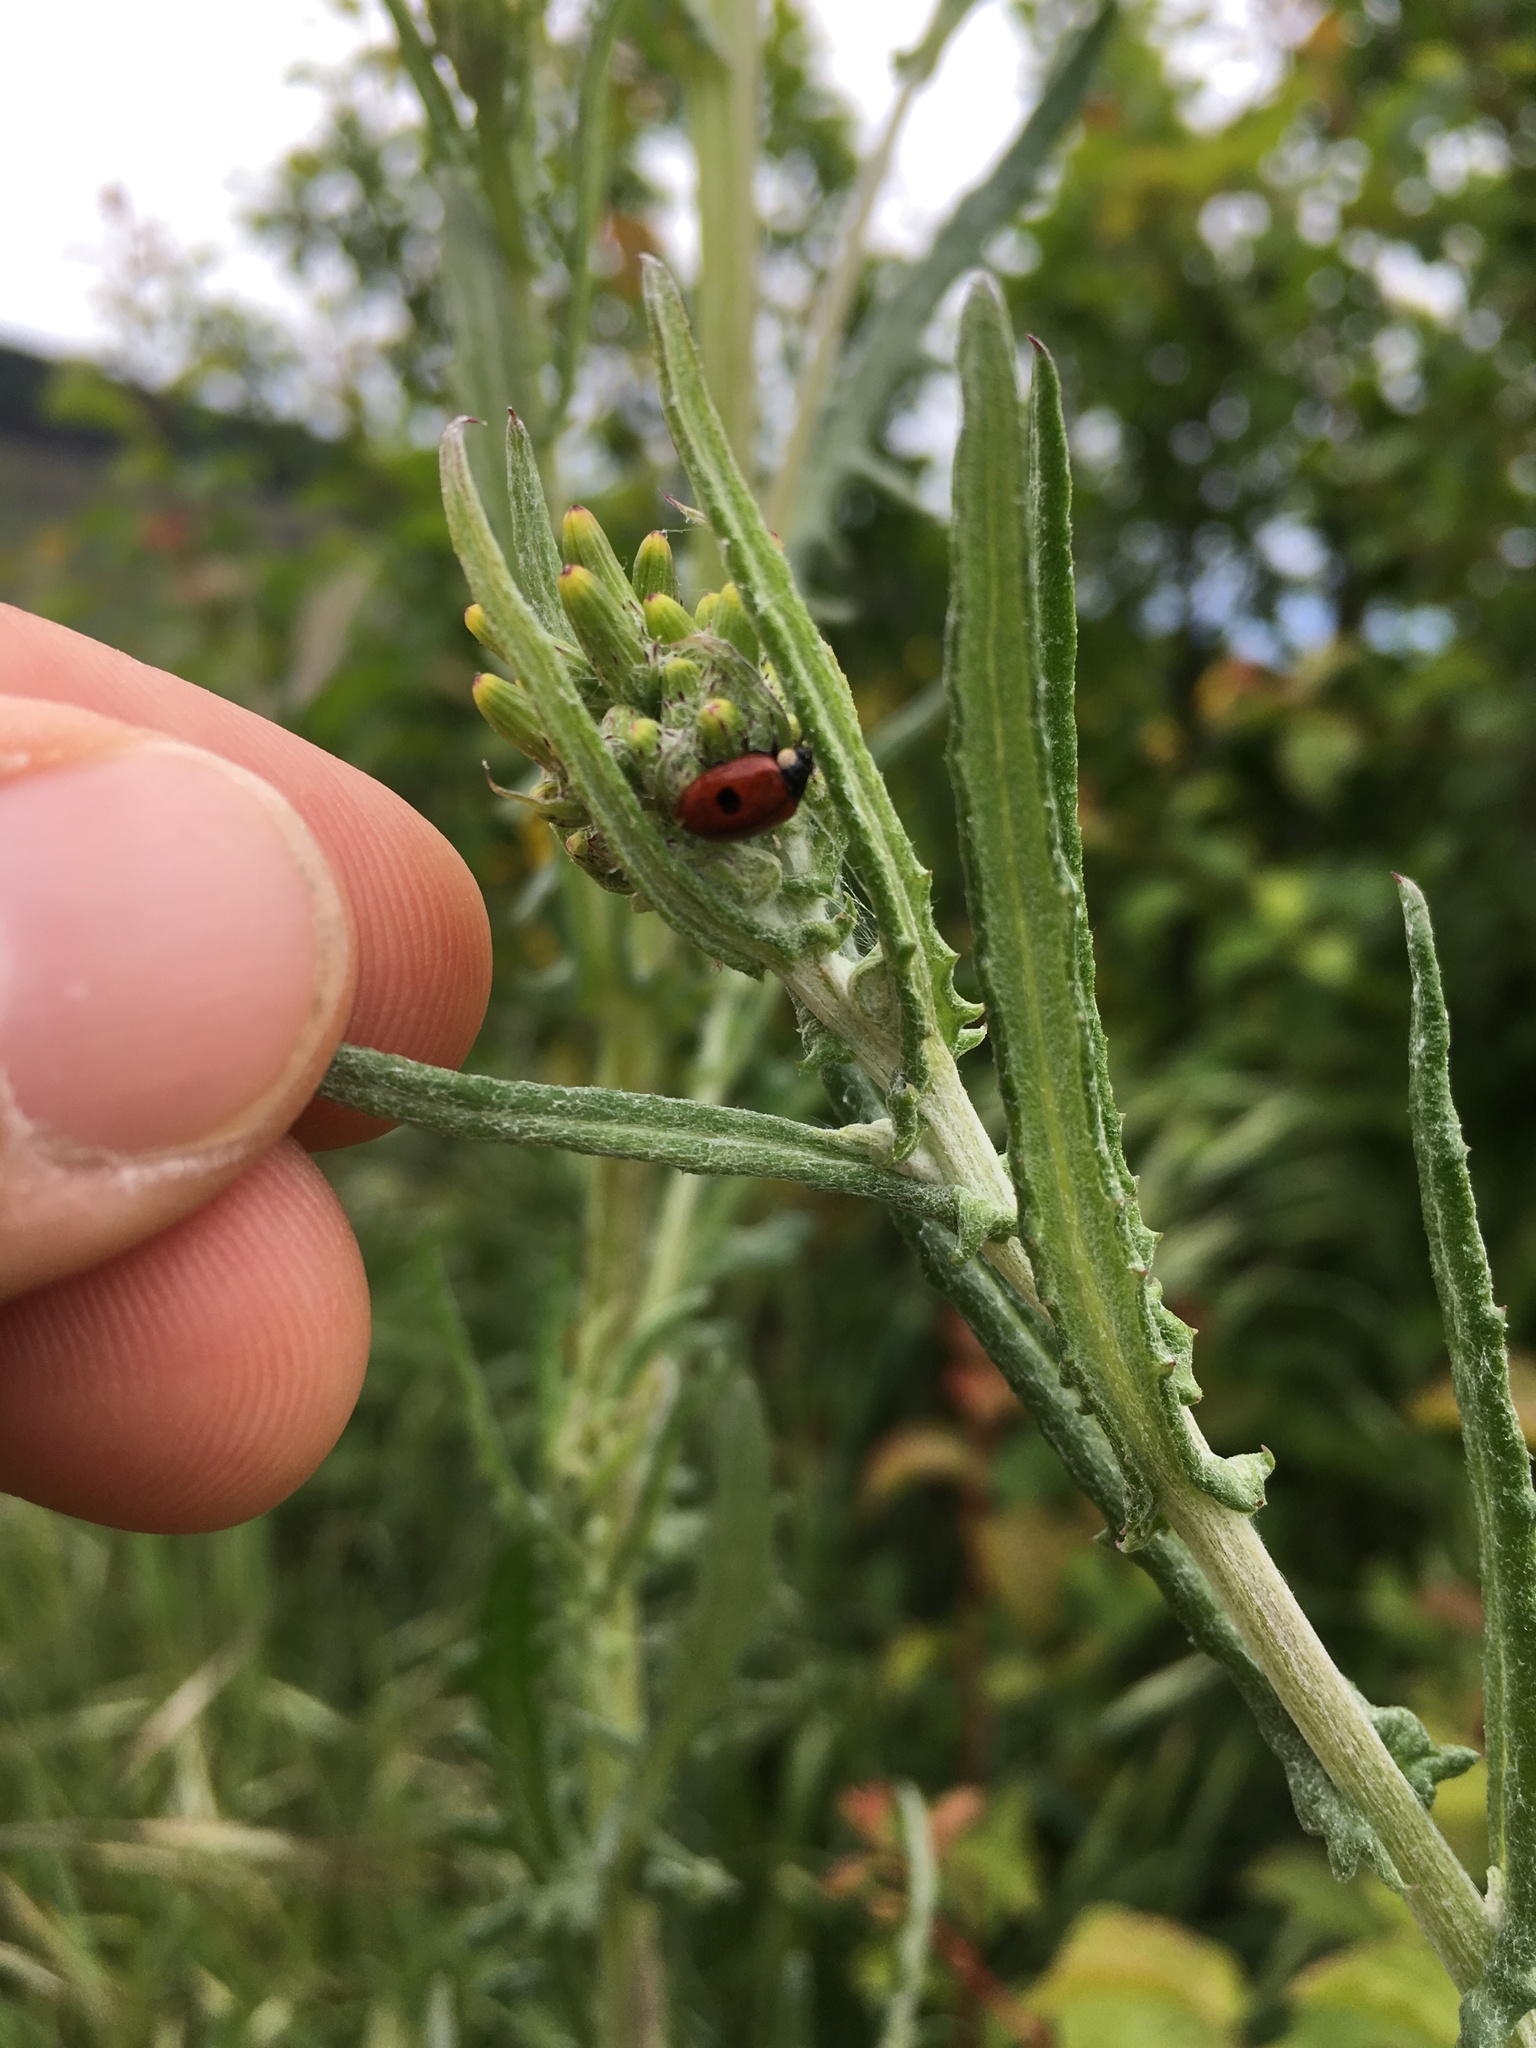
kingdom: Animalia
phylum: Arthropoda
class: Insecta
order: Coleoptera
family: Coccinellidae
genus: Adalia
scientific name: Adalia bipunctata
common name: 2-spot ladybird
